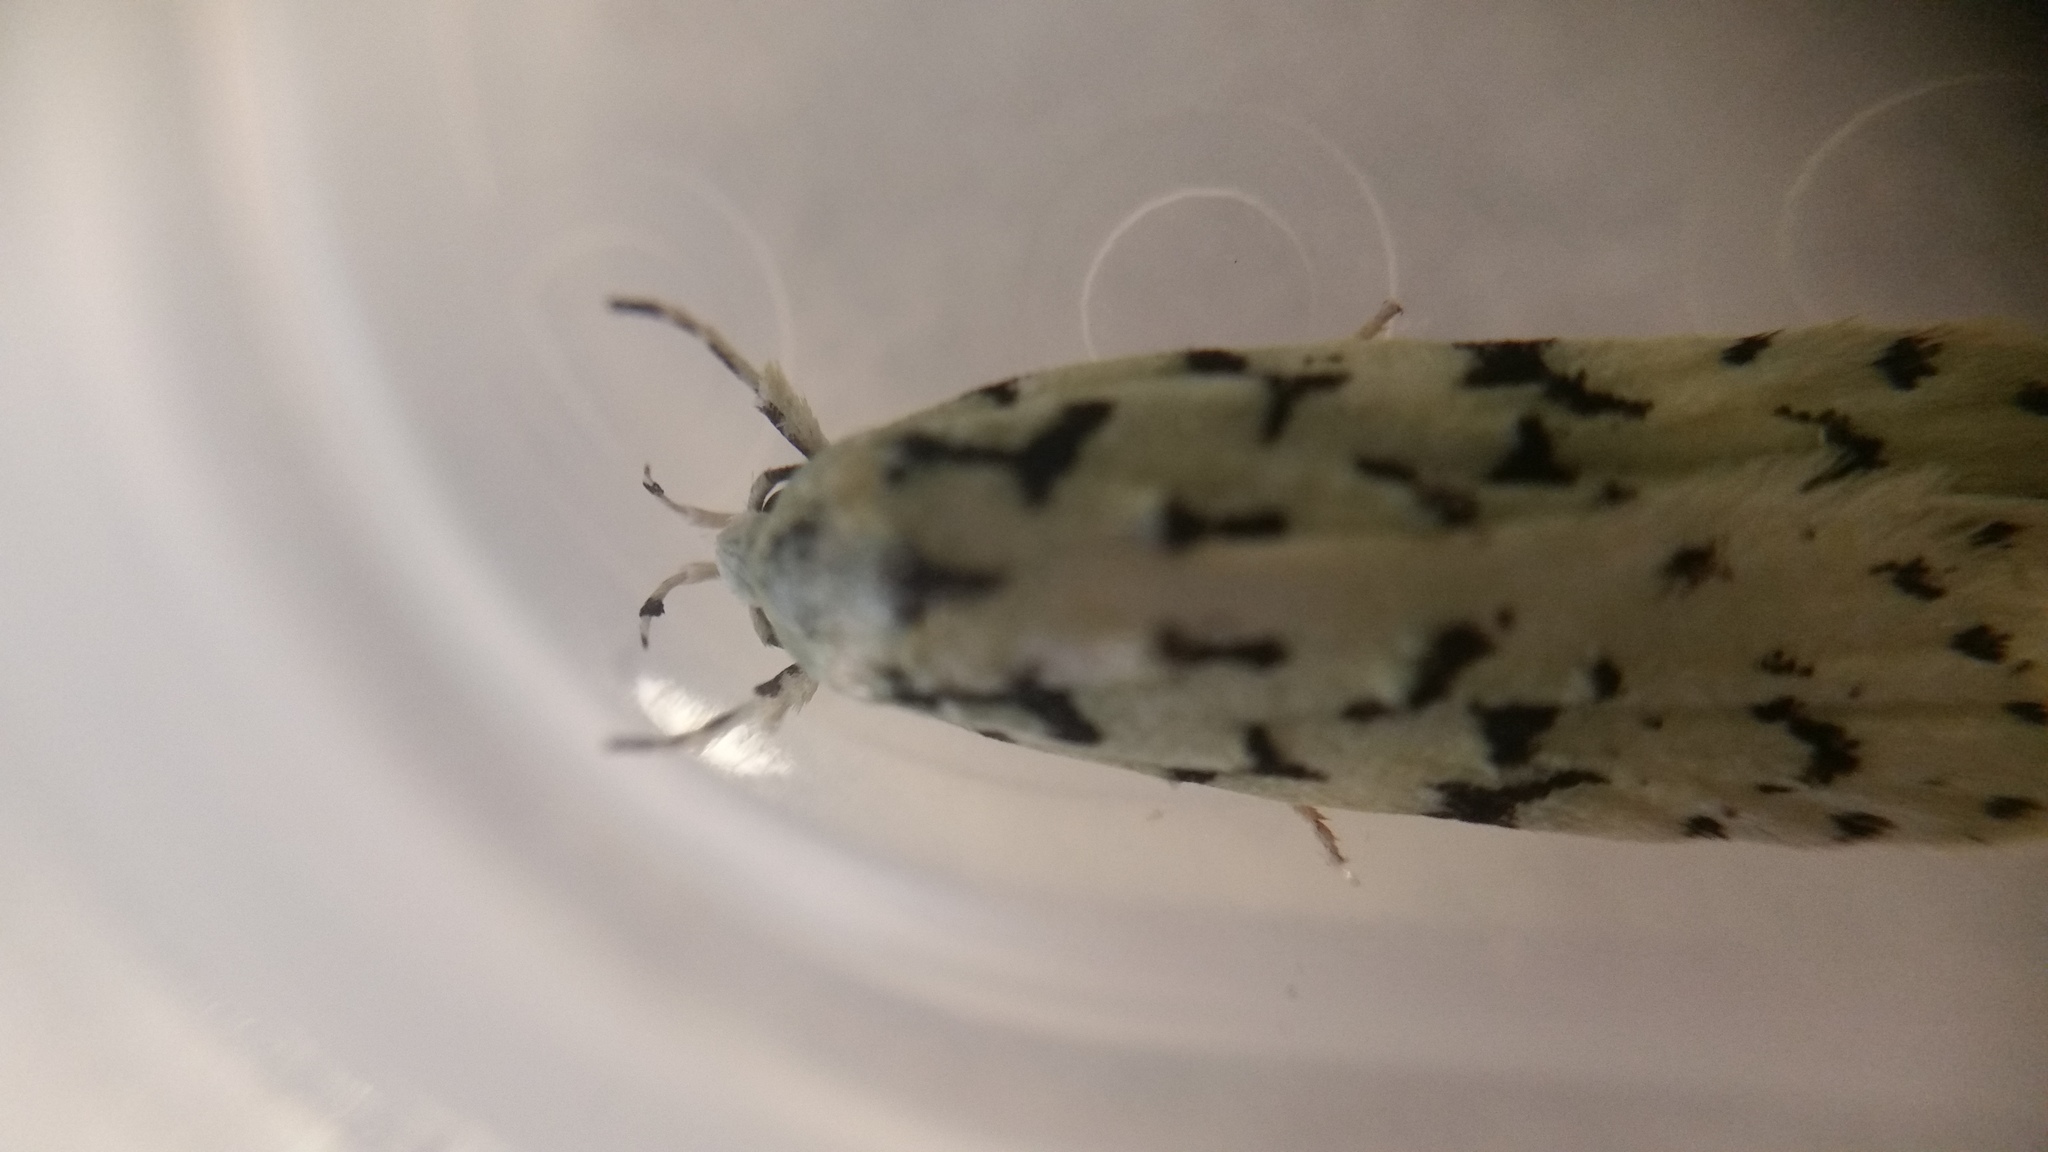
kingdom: Animalia
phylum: Arthropoda
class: Insecta
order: Lepidoptera
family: Oecophoridae
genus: Izatha
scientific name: Izatha peroneanella
